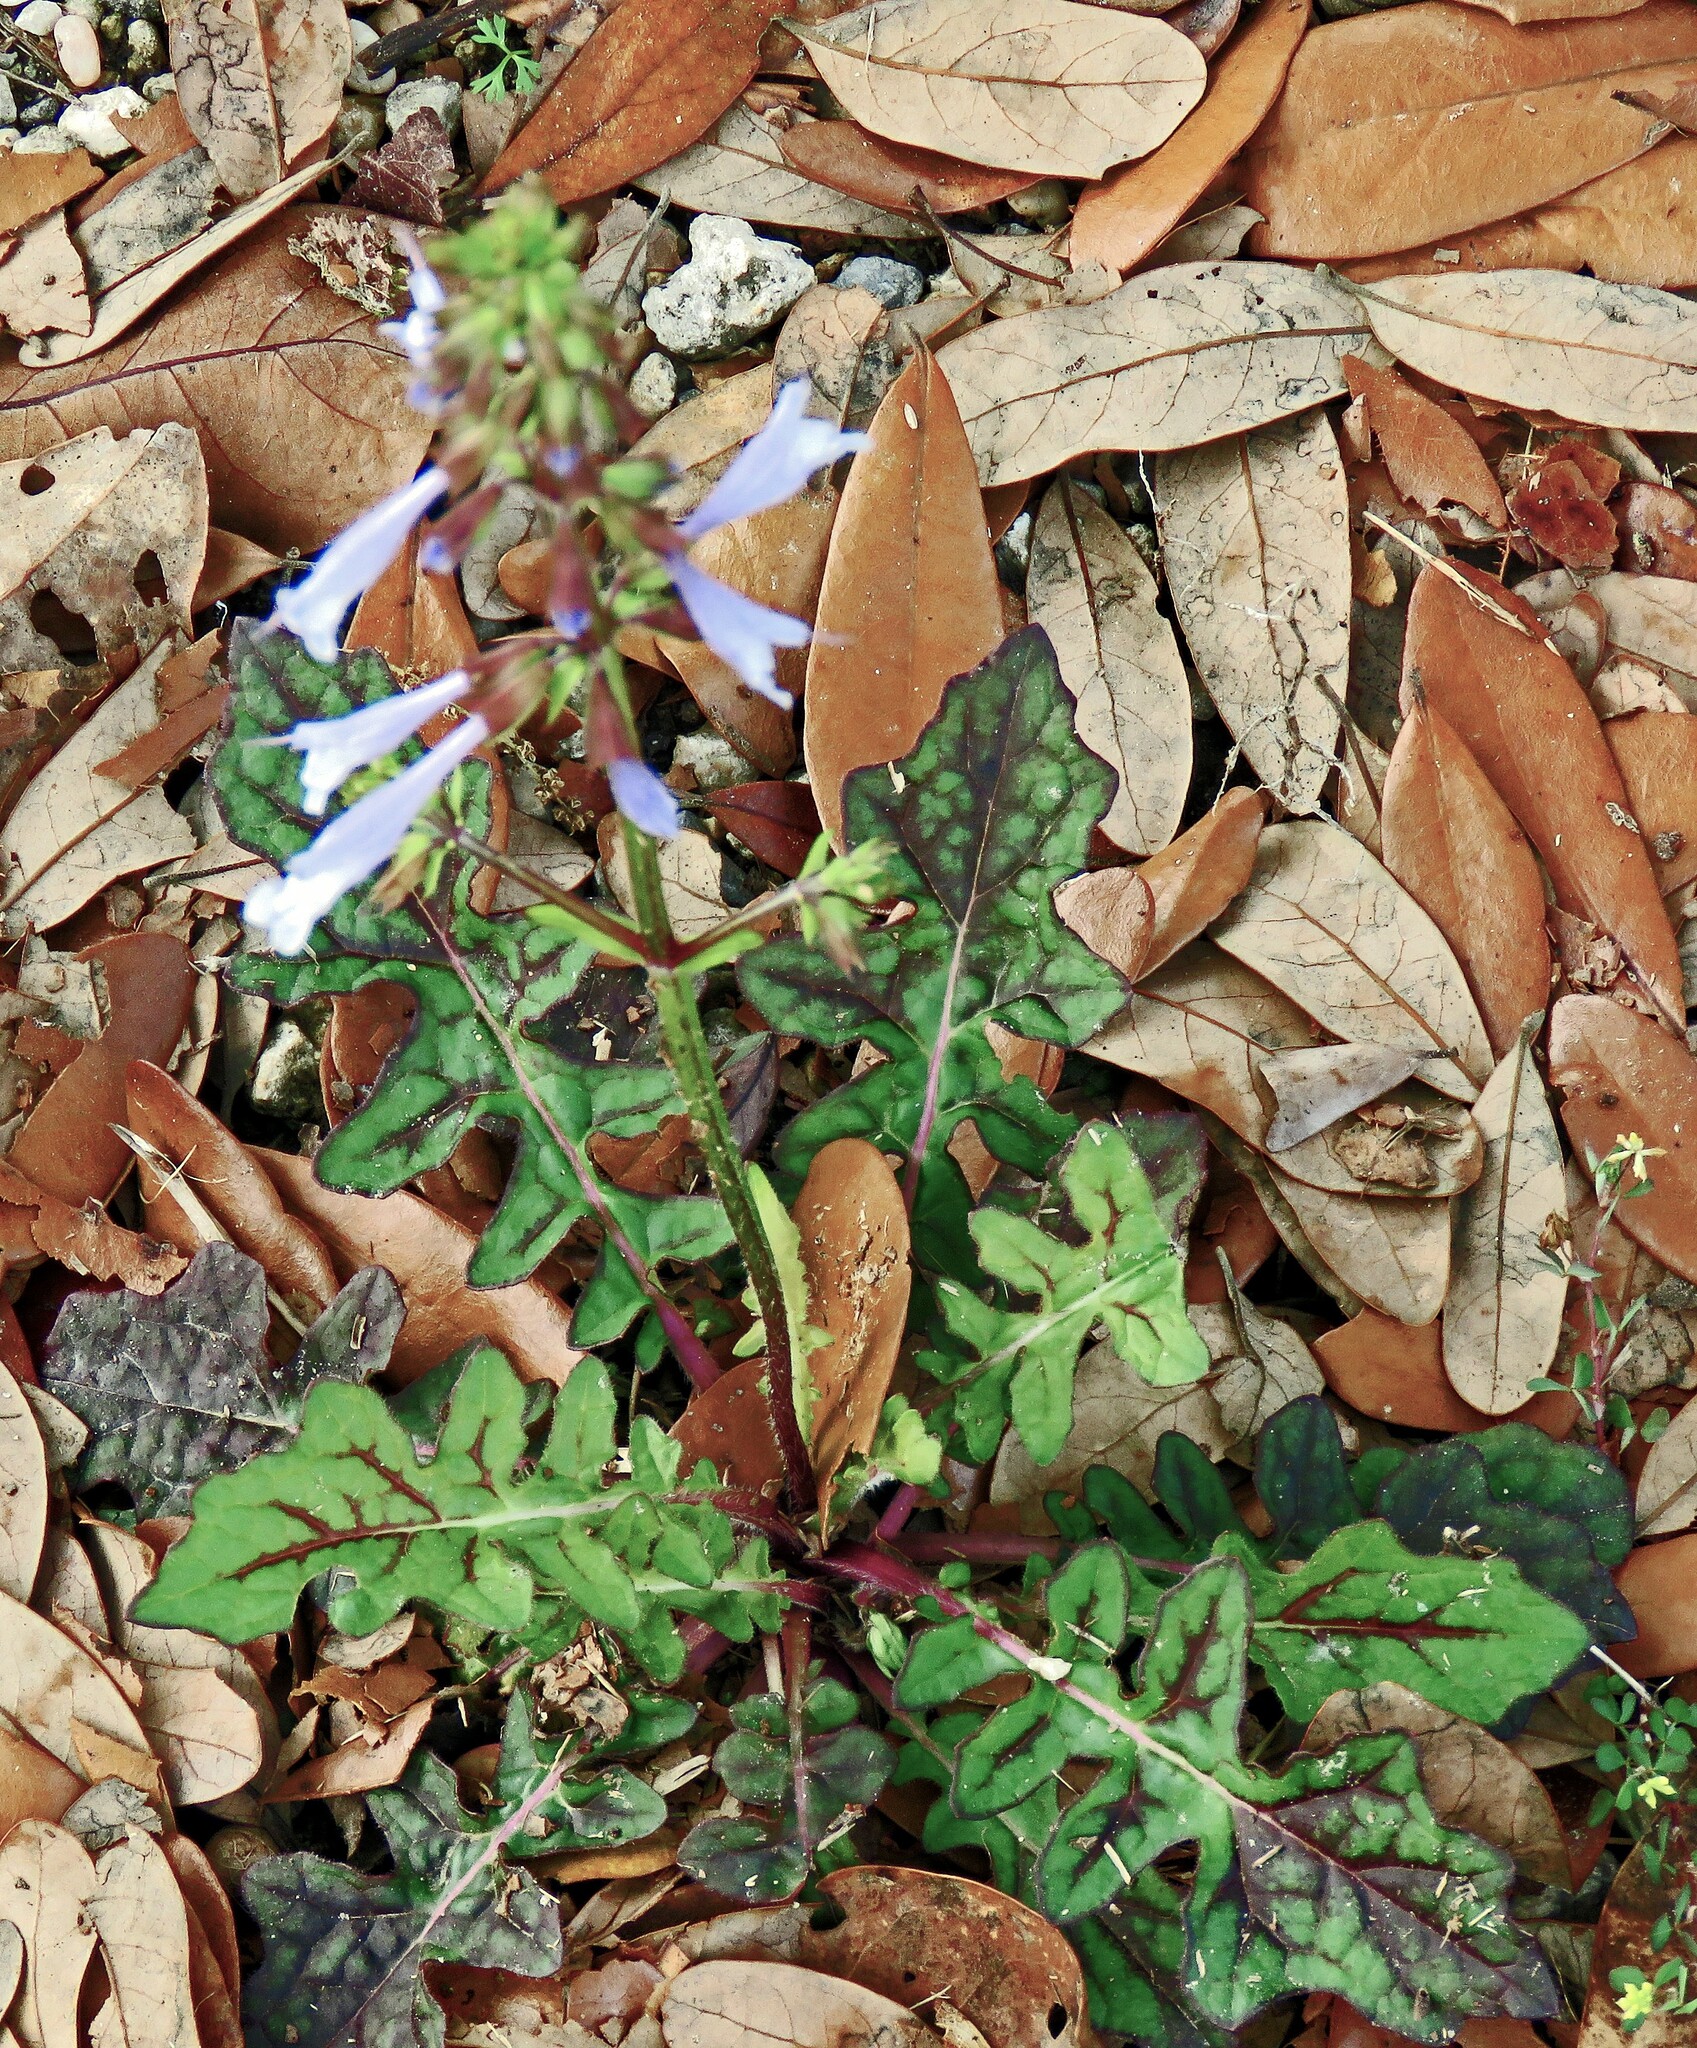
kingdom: Plantae
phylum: Tracheophyta
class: Magnoliopsida
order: Lamiales
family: Lamiaceae
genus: Salvia
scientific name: Salvia lyrata
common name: Cancerweed
